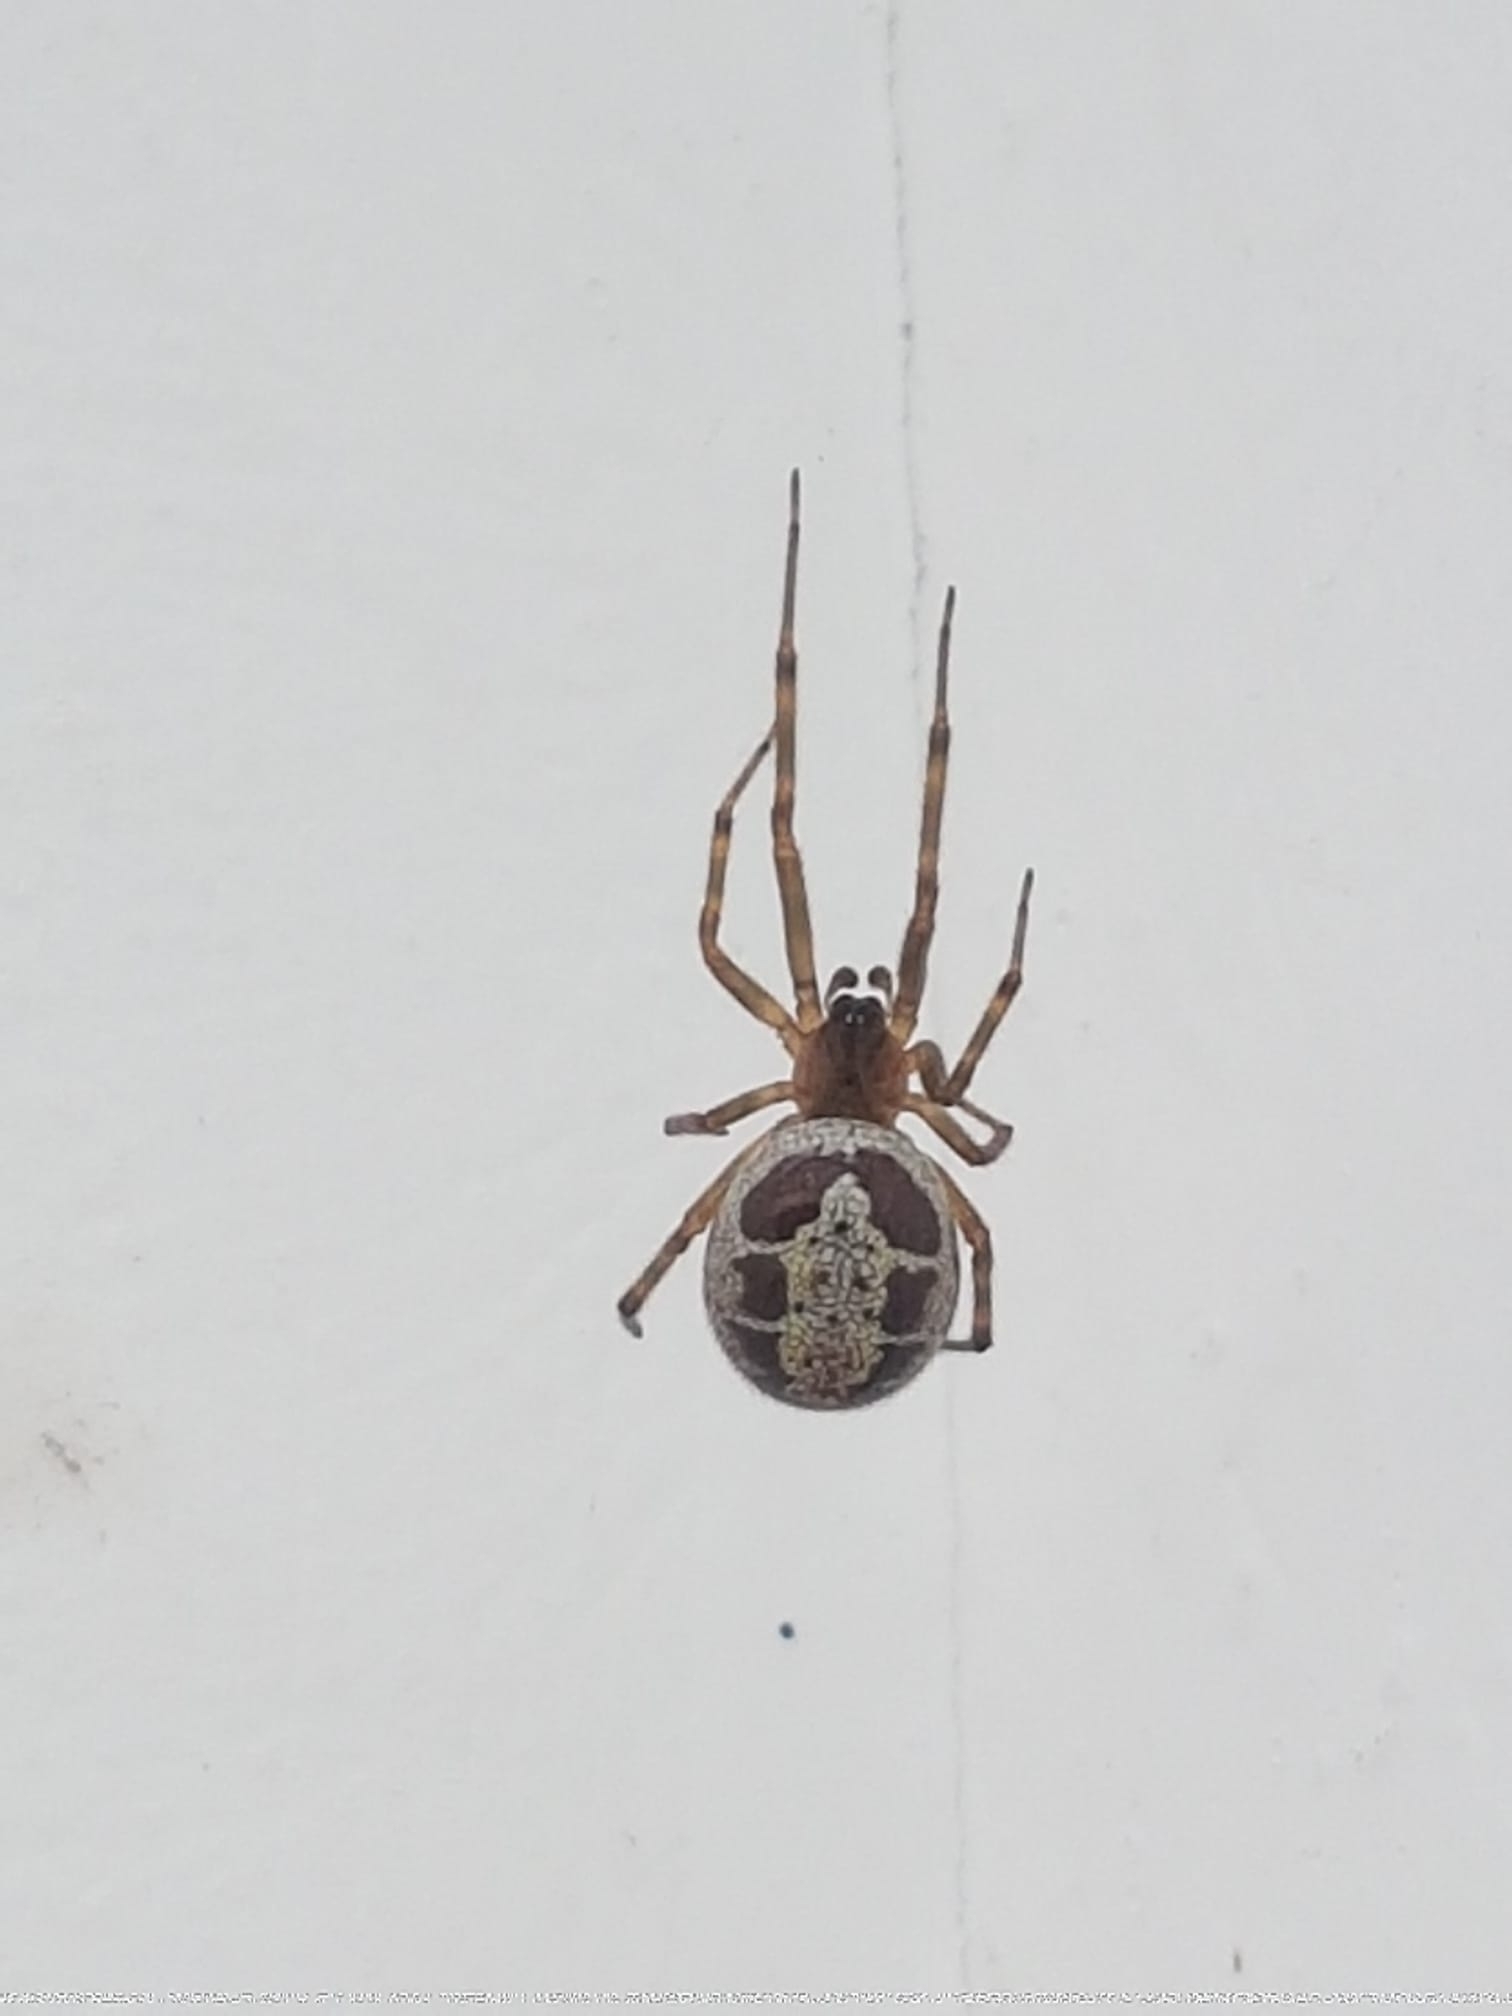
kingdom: Animalia
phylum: Arthropoda
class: Arachnida
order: Araneae
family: Theridiidae
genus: Steatoda
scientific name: Steatoda nobilis
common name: Cobweb weaver
